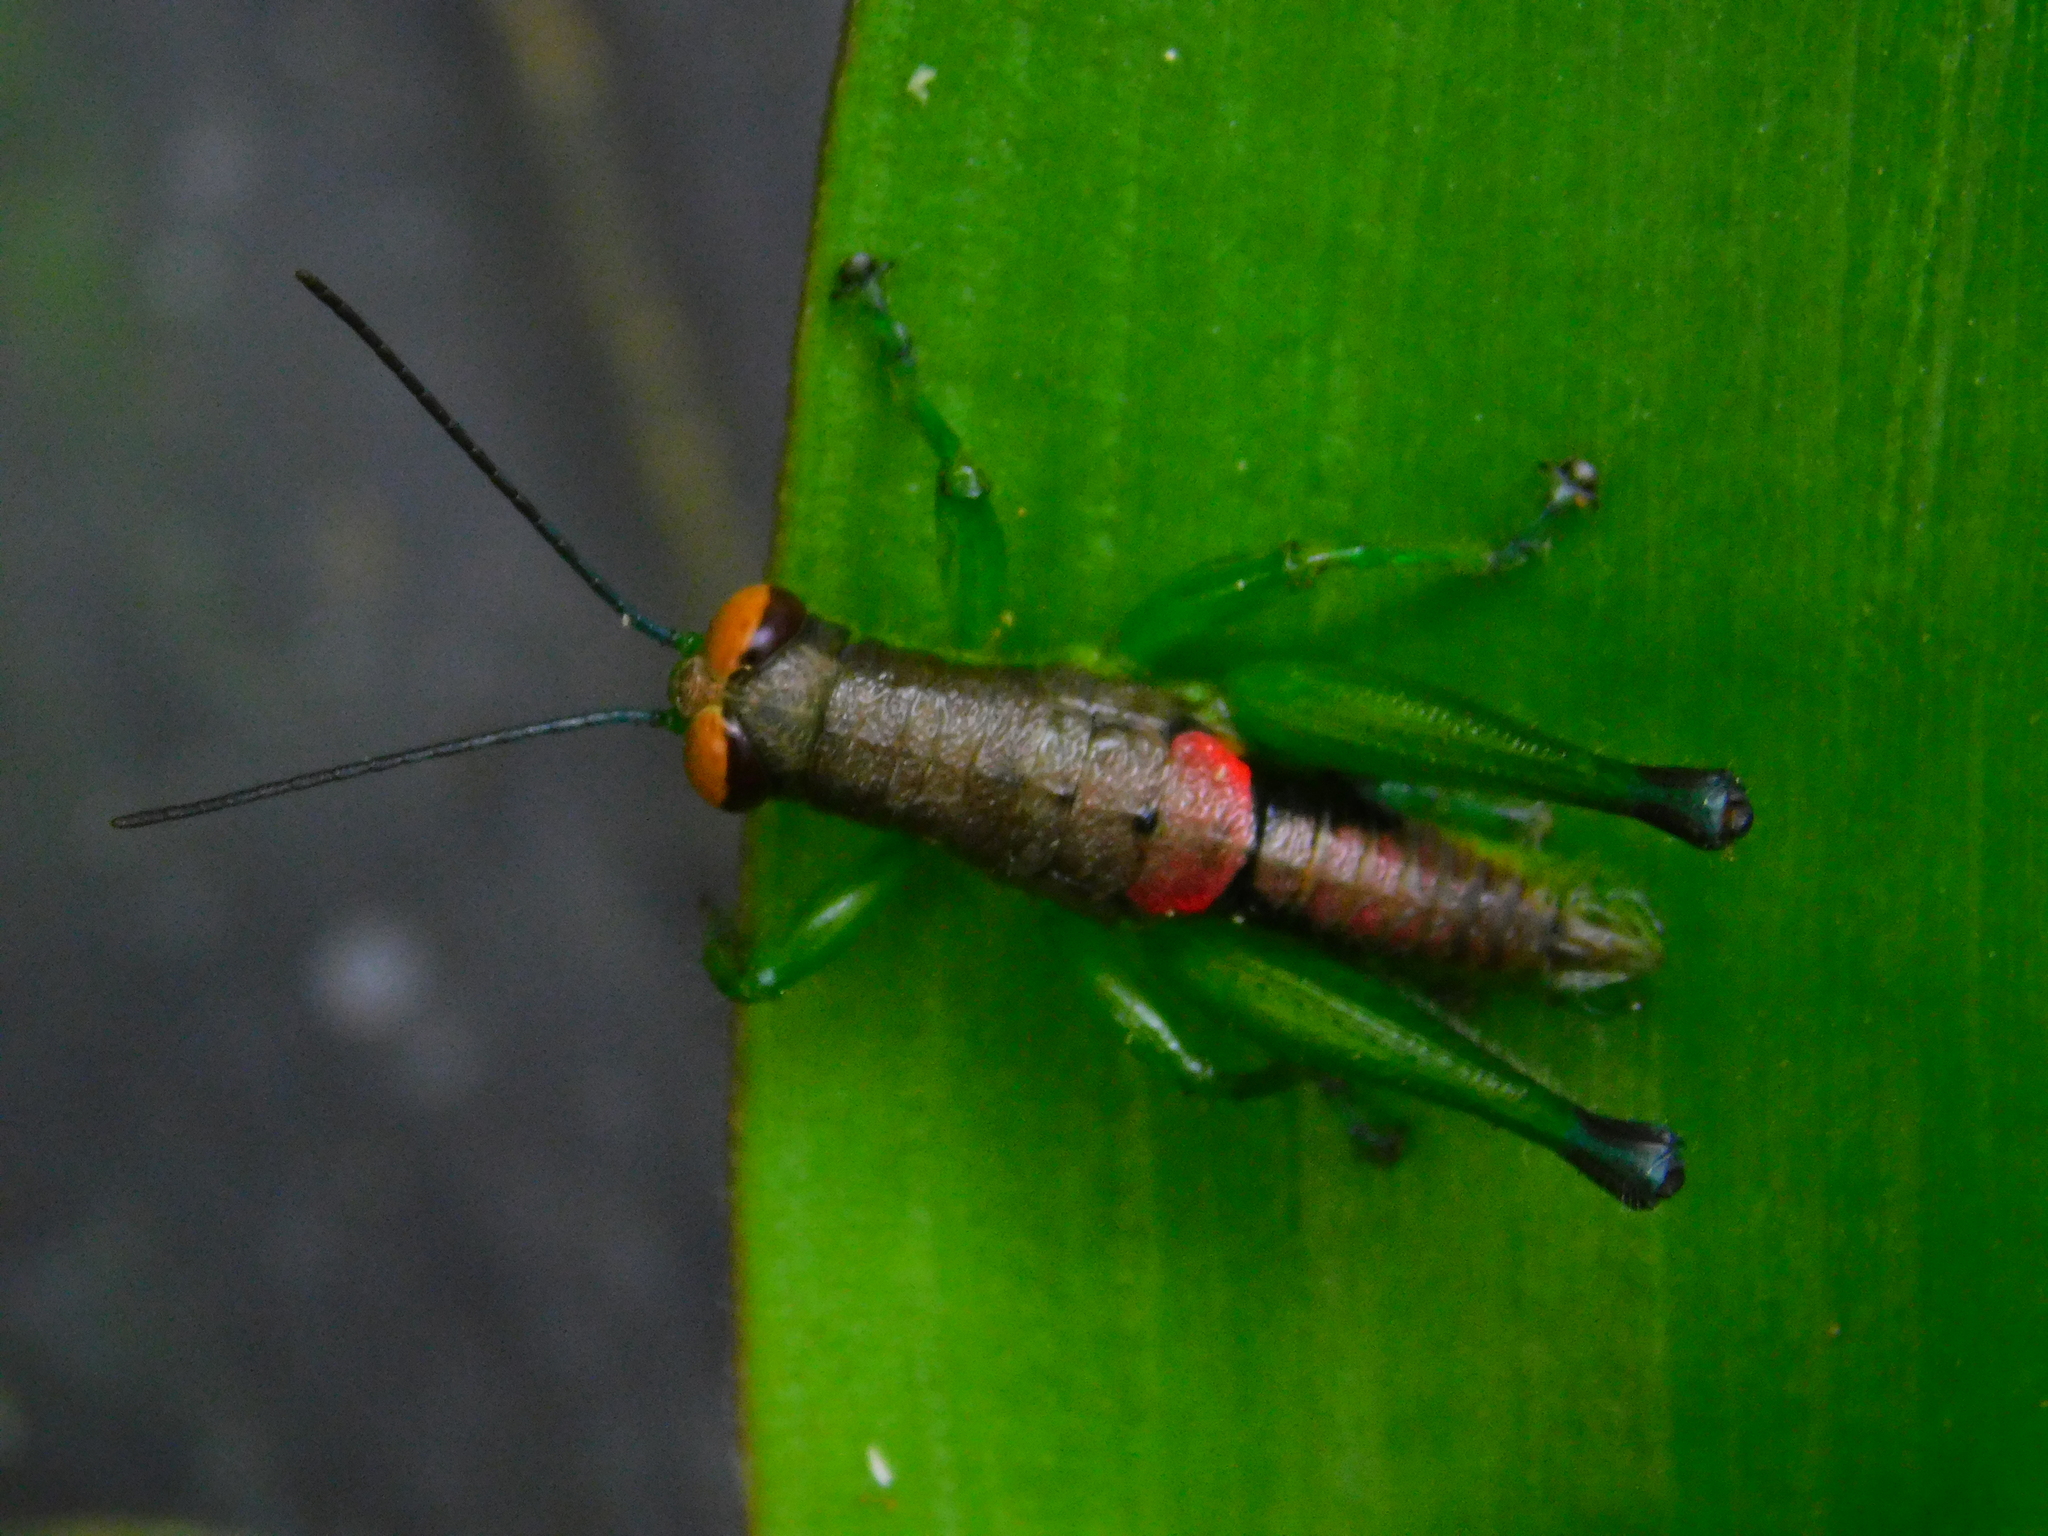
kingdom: Animalia
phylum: Arthropoda
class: Insecta
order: Orthoptera
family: Acrididae
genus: Psiloscirtus
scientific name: Psiloscirtus splendidus
